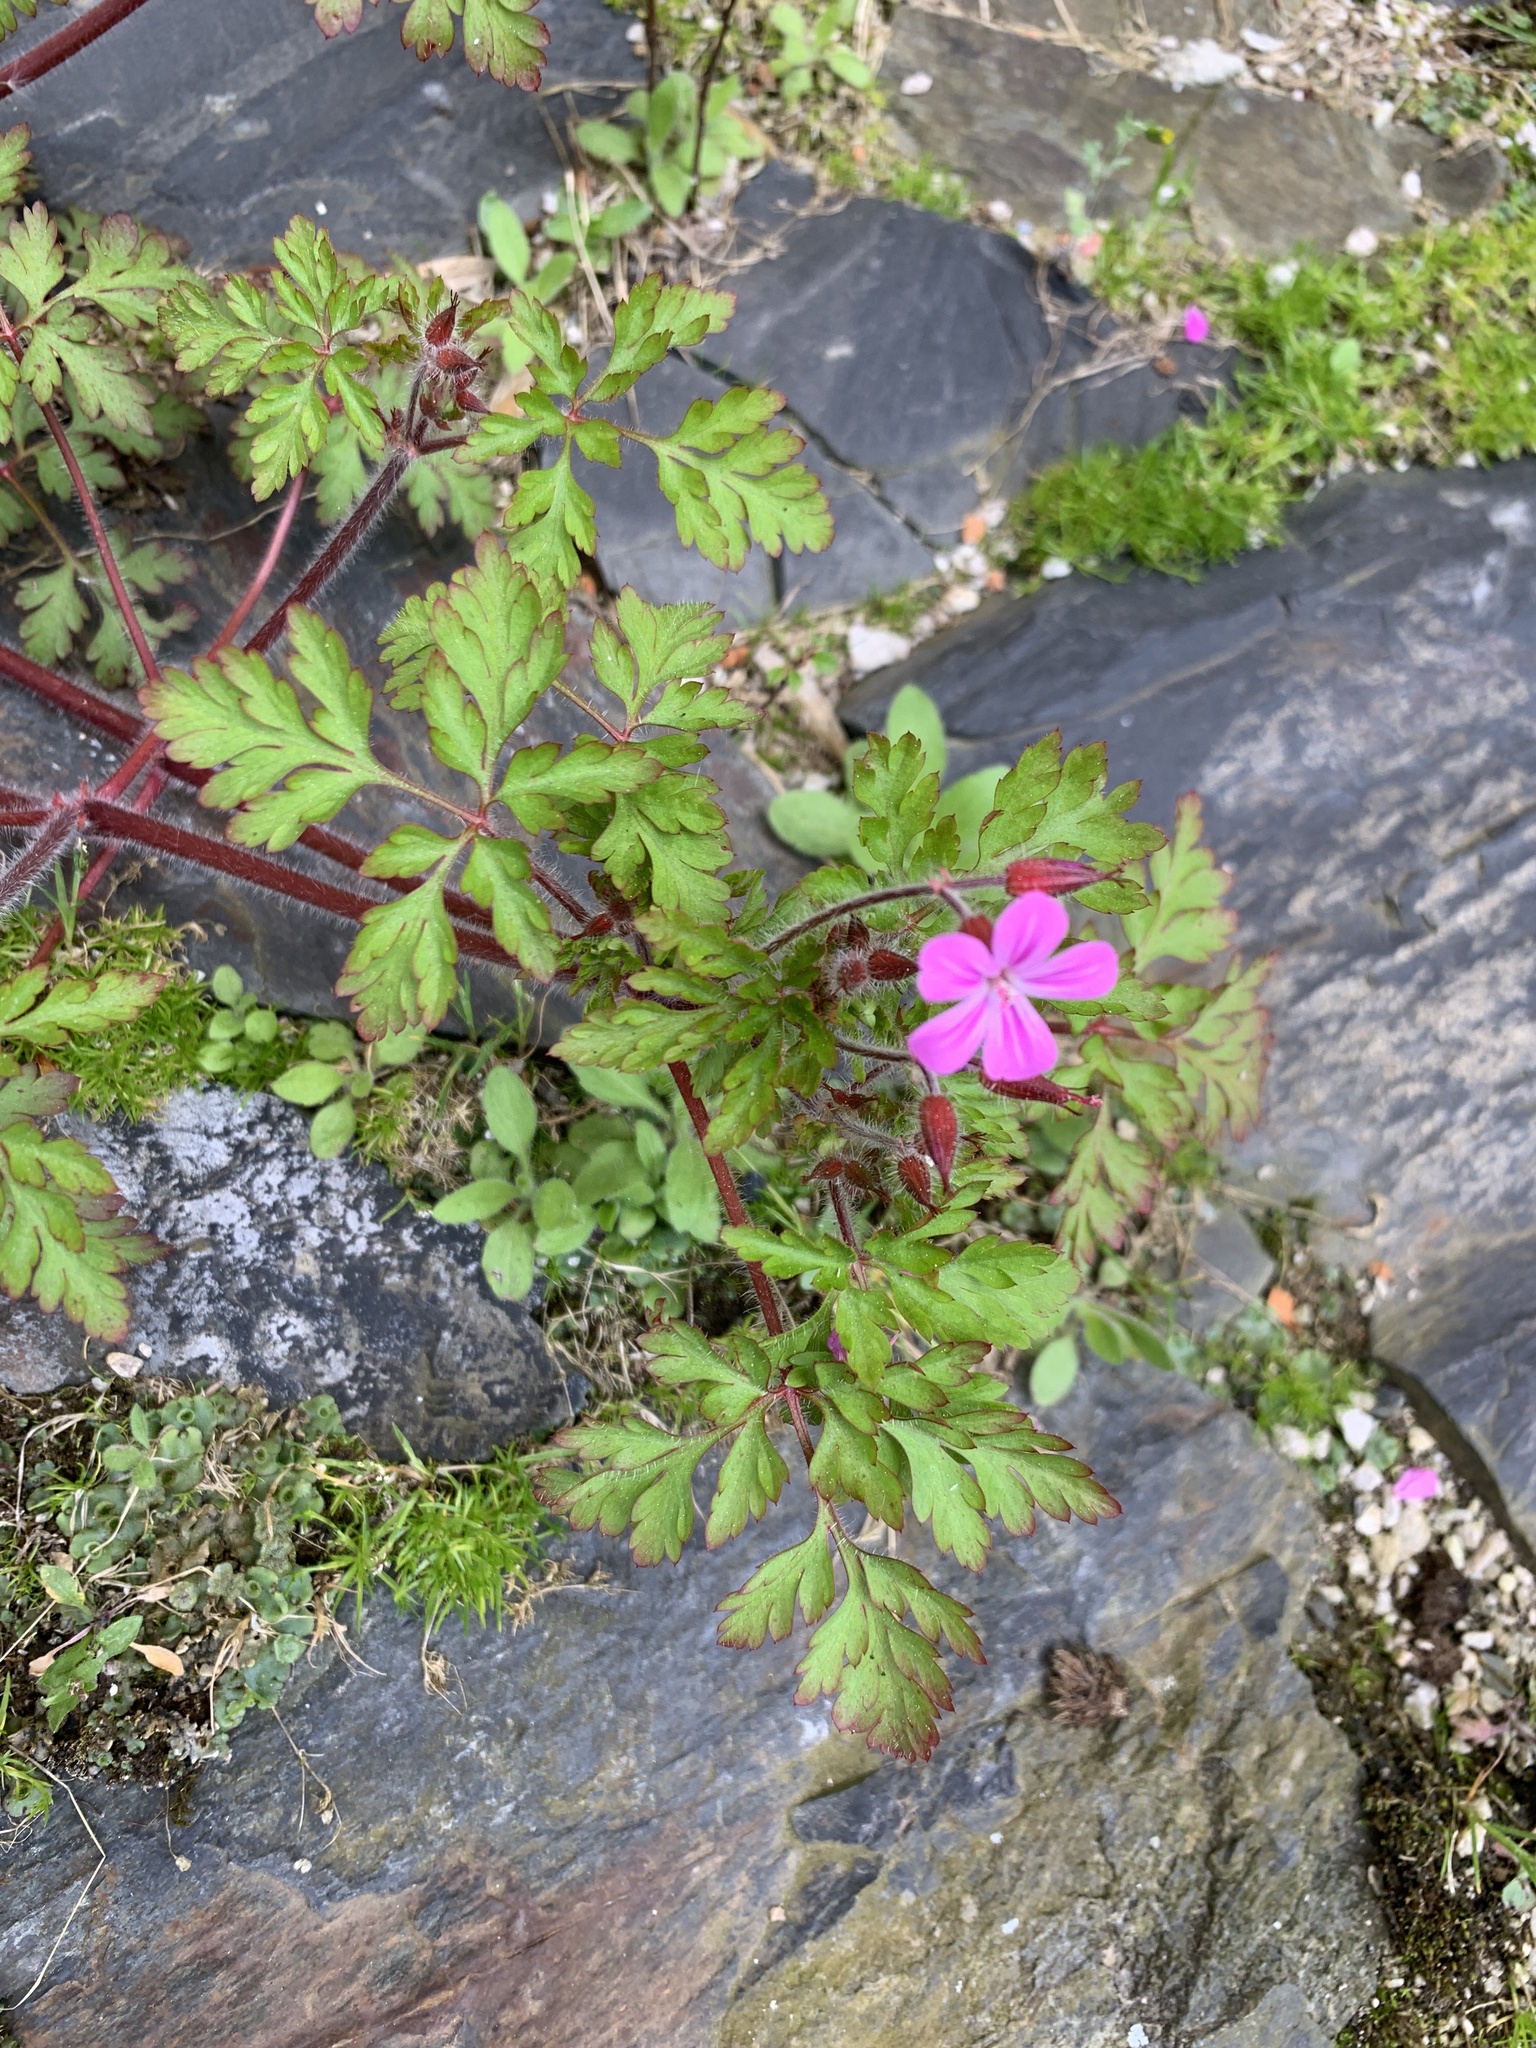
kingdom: Plantae
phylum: Tracheophyta
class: Magnoliopsida
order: Geraniales
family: Geraniaceae
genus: Geranium
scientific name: Geranium robertianum
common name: Herb-robert
